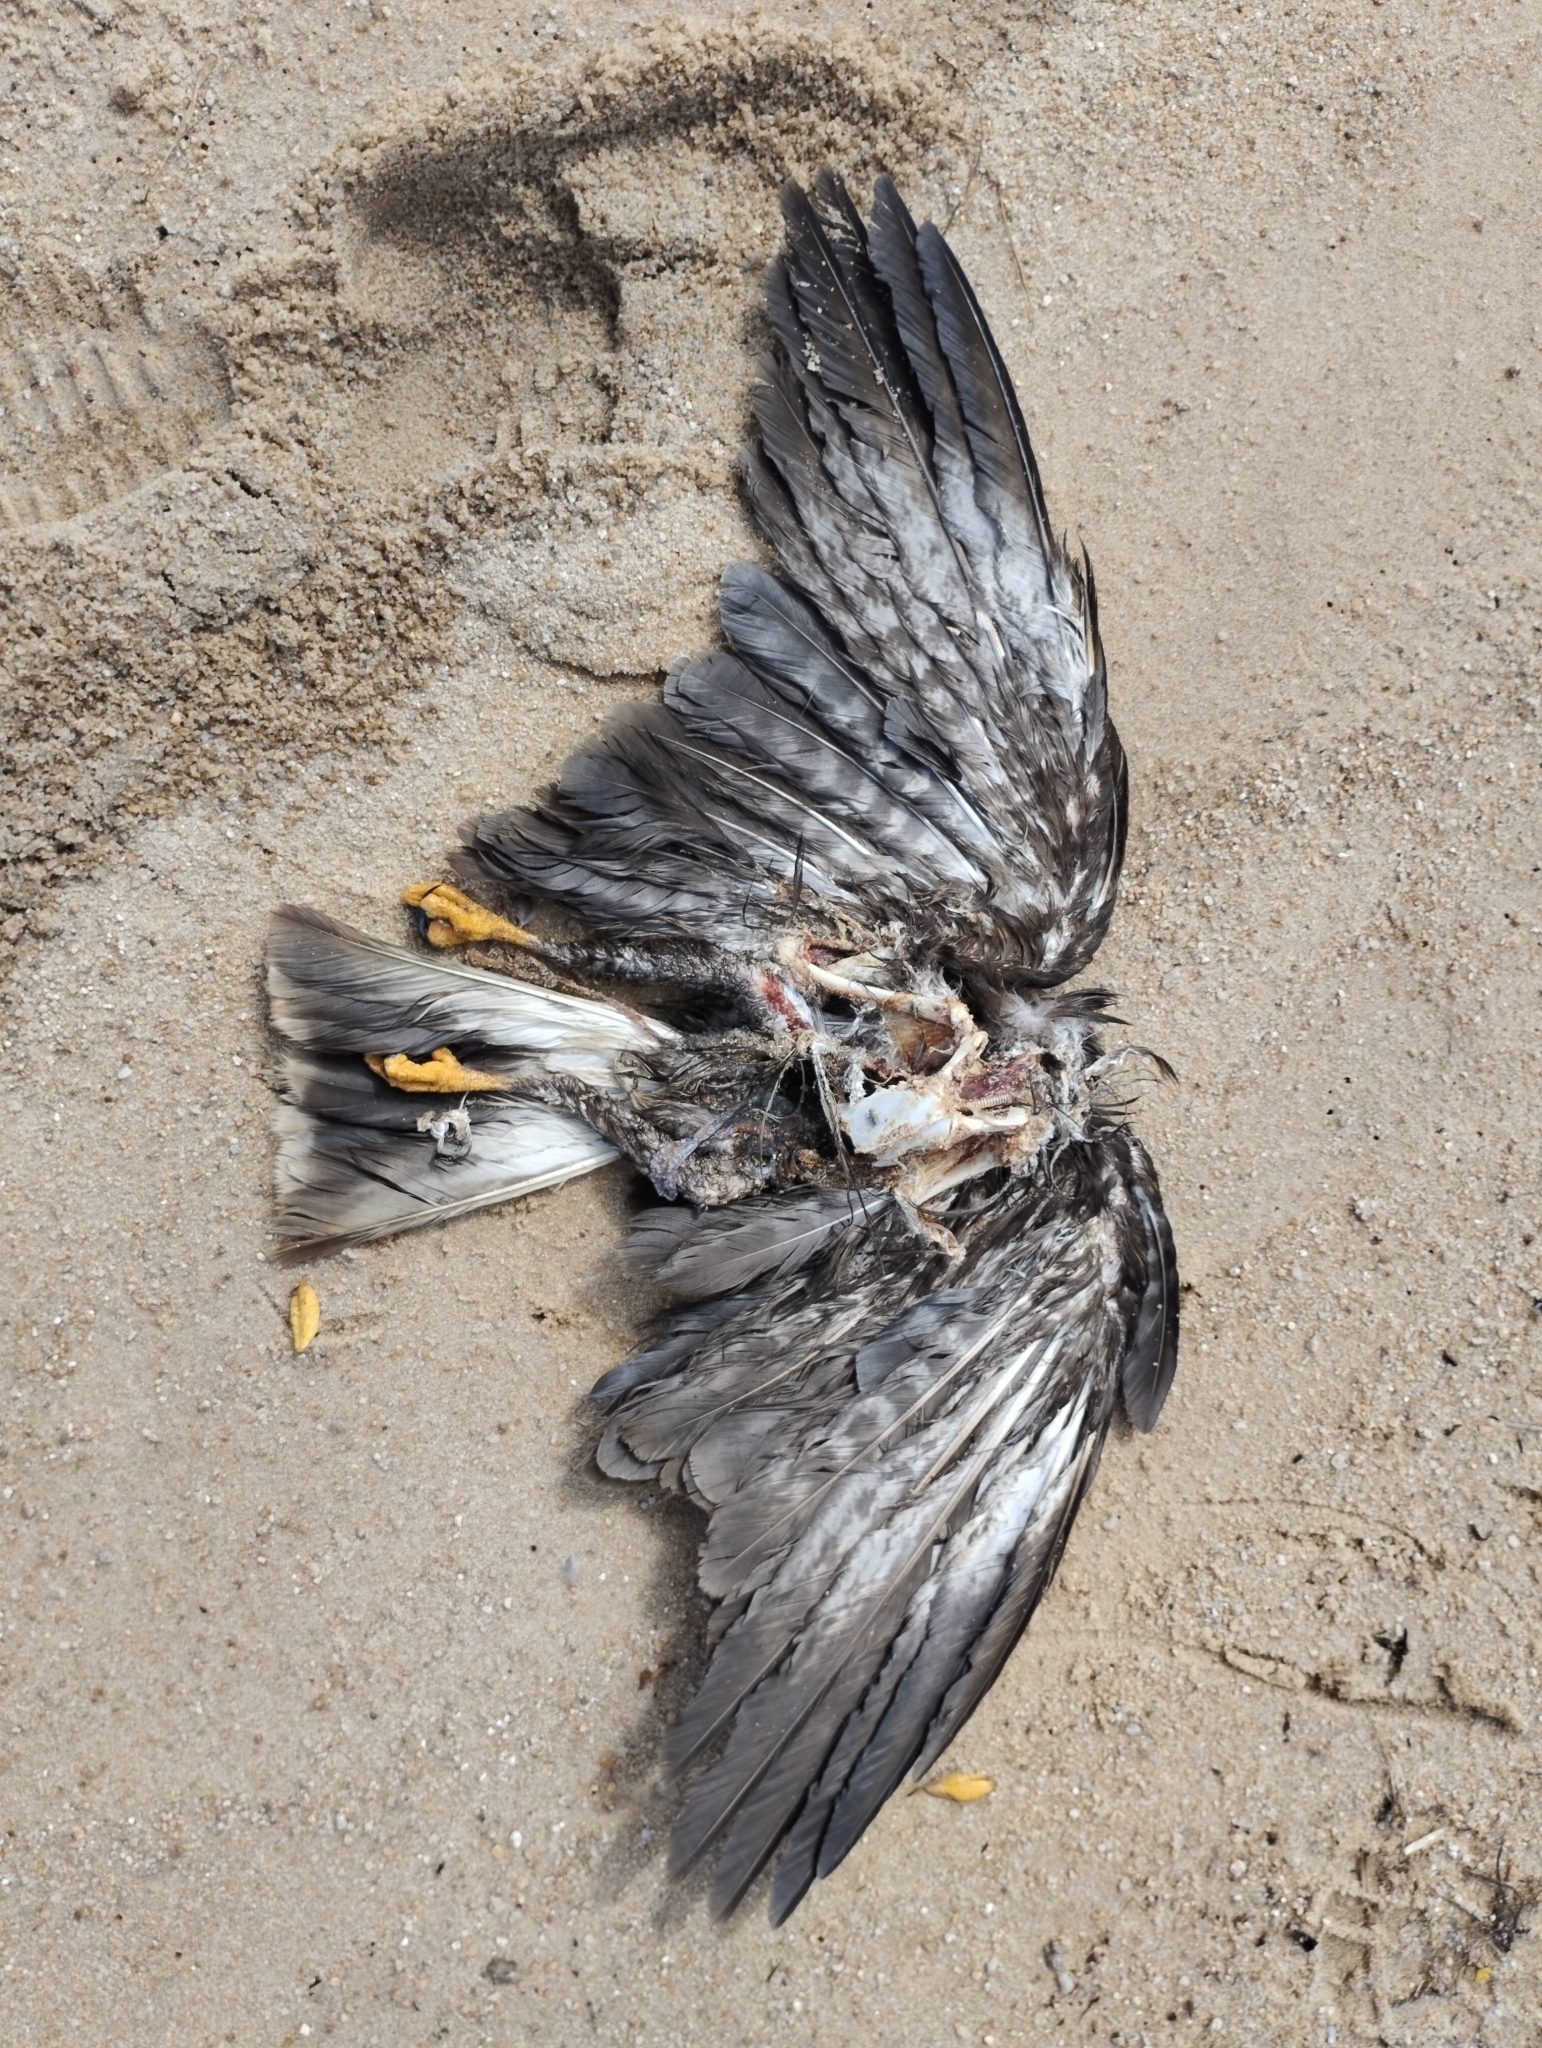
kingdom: Animalia
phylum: Chordata
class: Aves
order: Accipitriformes
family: Accipitridae
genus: Rostrhamus
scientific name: Rostrhamus sociabilis
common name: Snail kite
